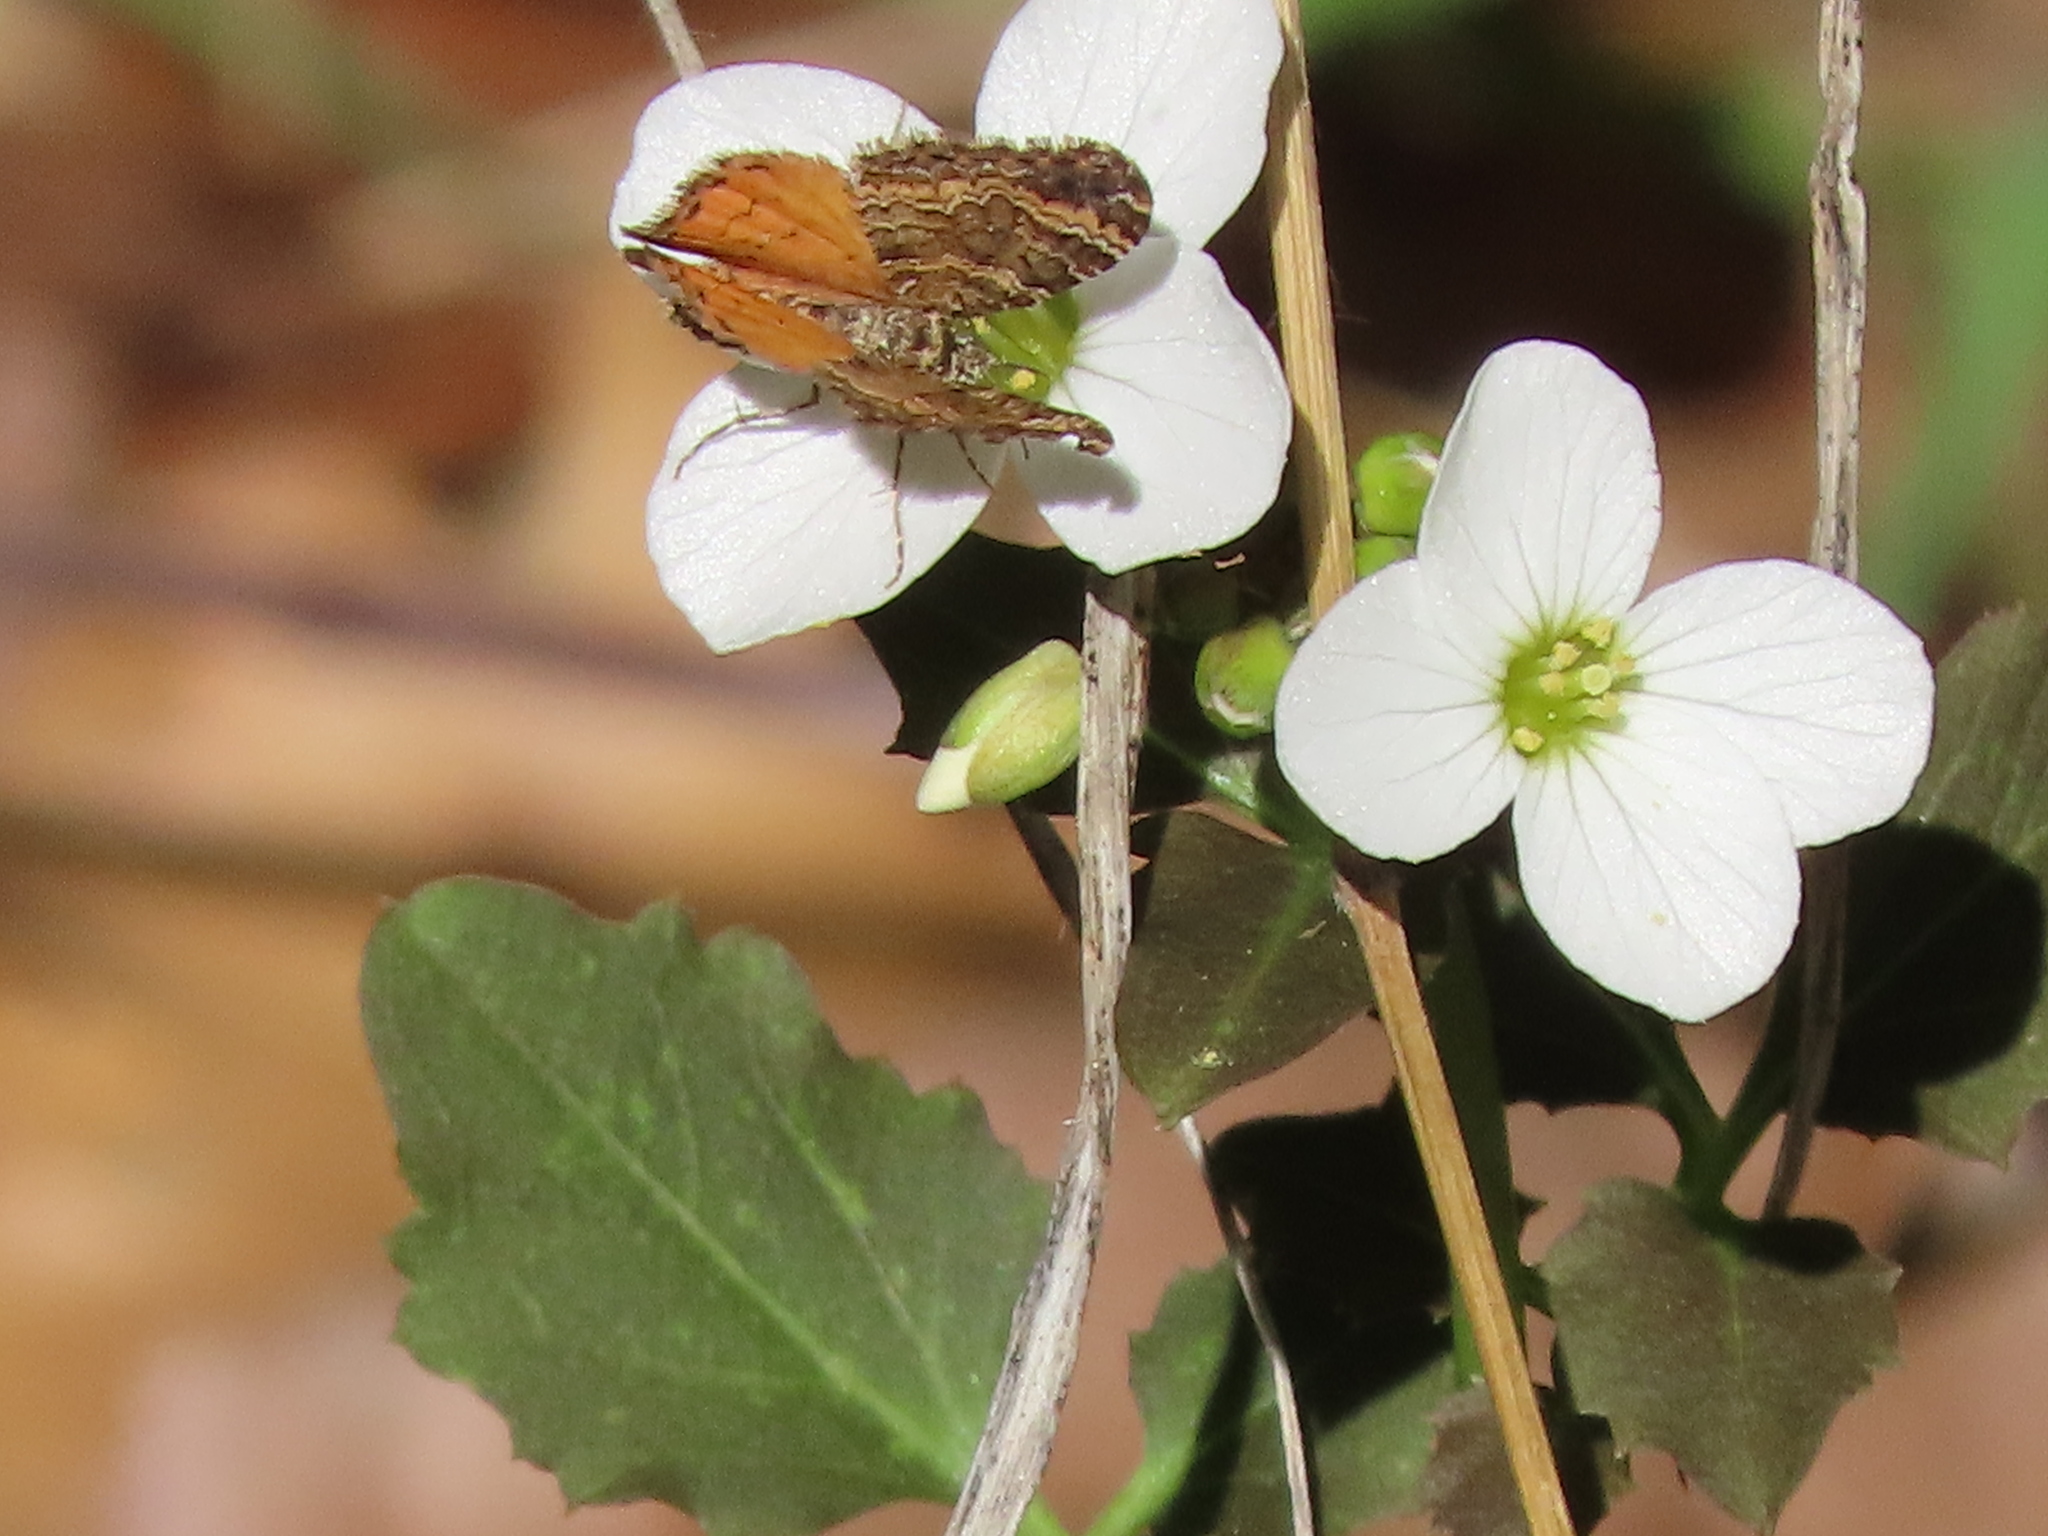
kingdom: Animalia
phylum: Arthropoda
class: Insecta
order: Lepidoptera
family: Geometridae
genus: Epirrhoe
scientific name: Epirrhoe plebeculata
